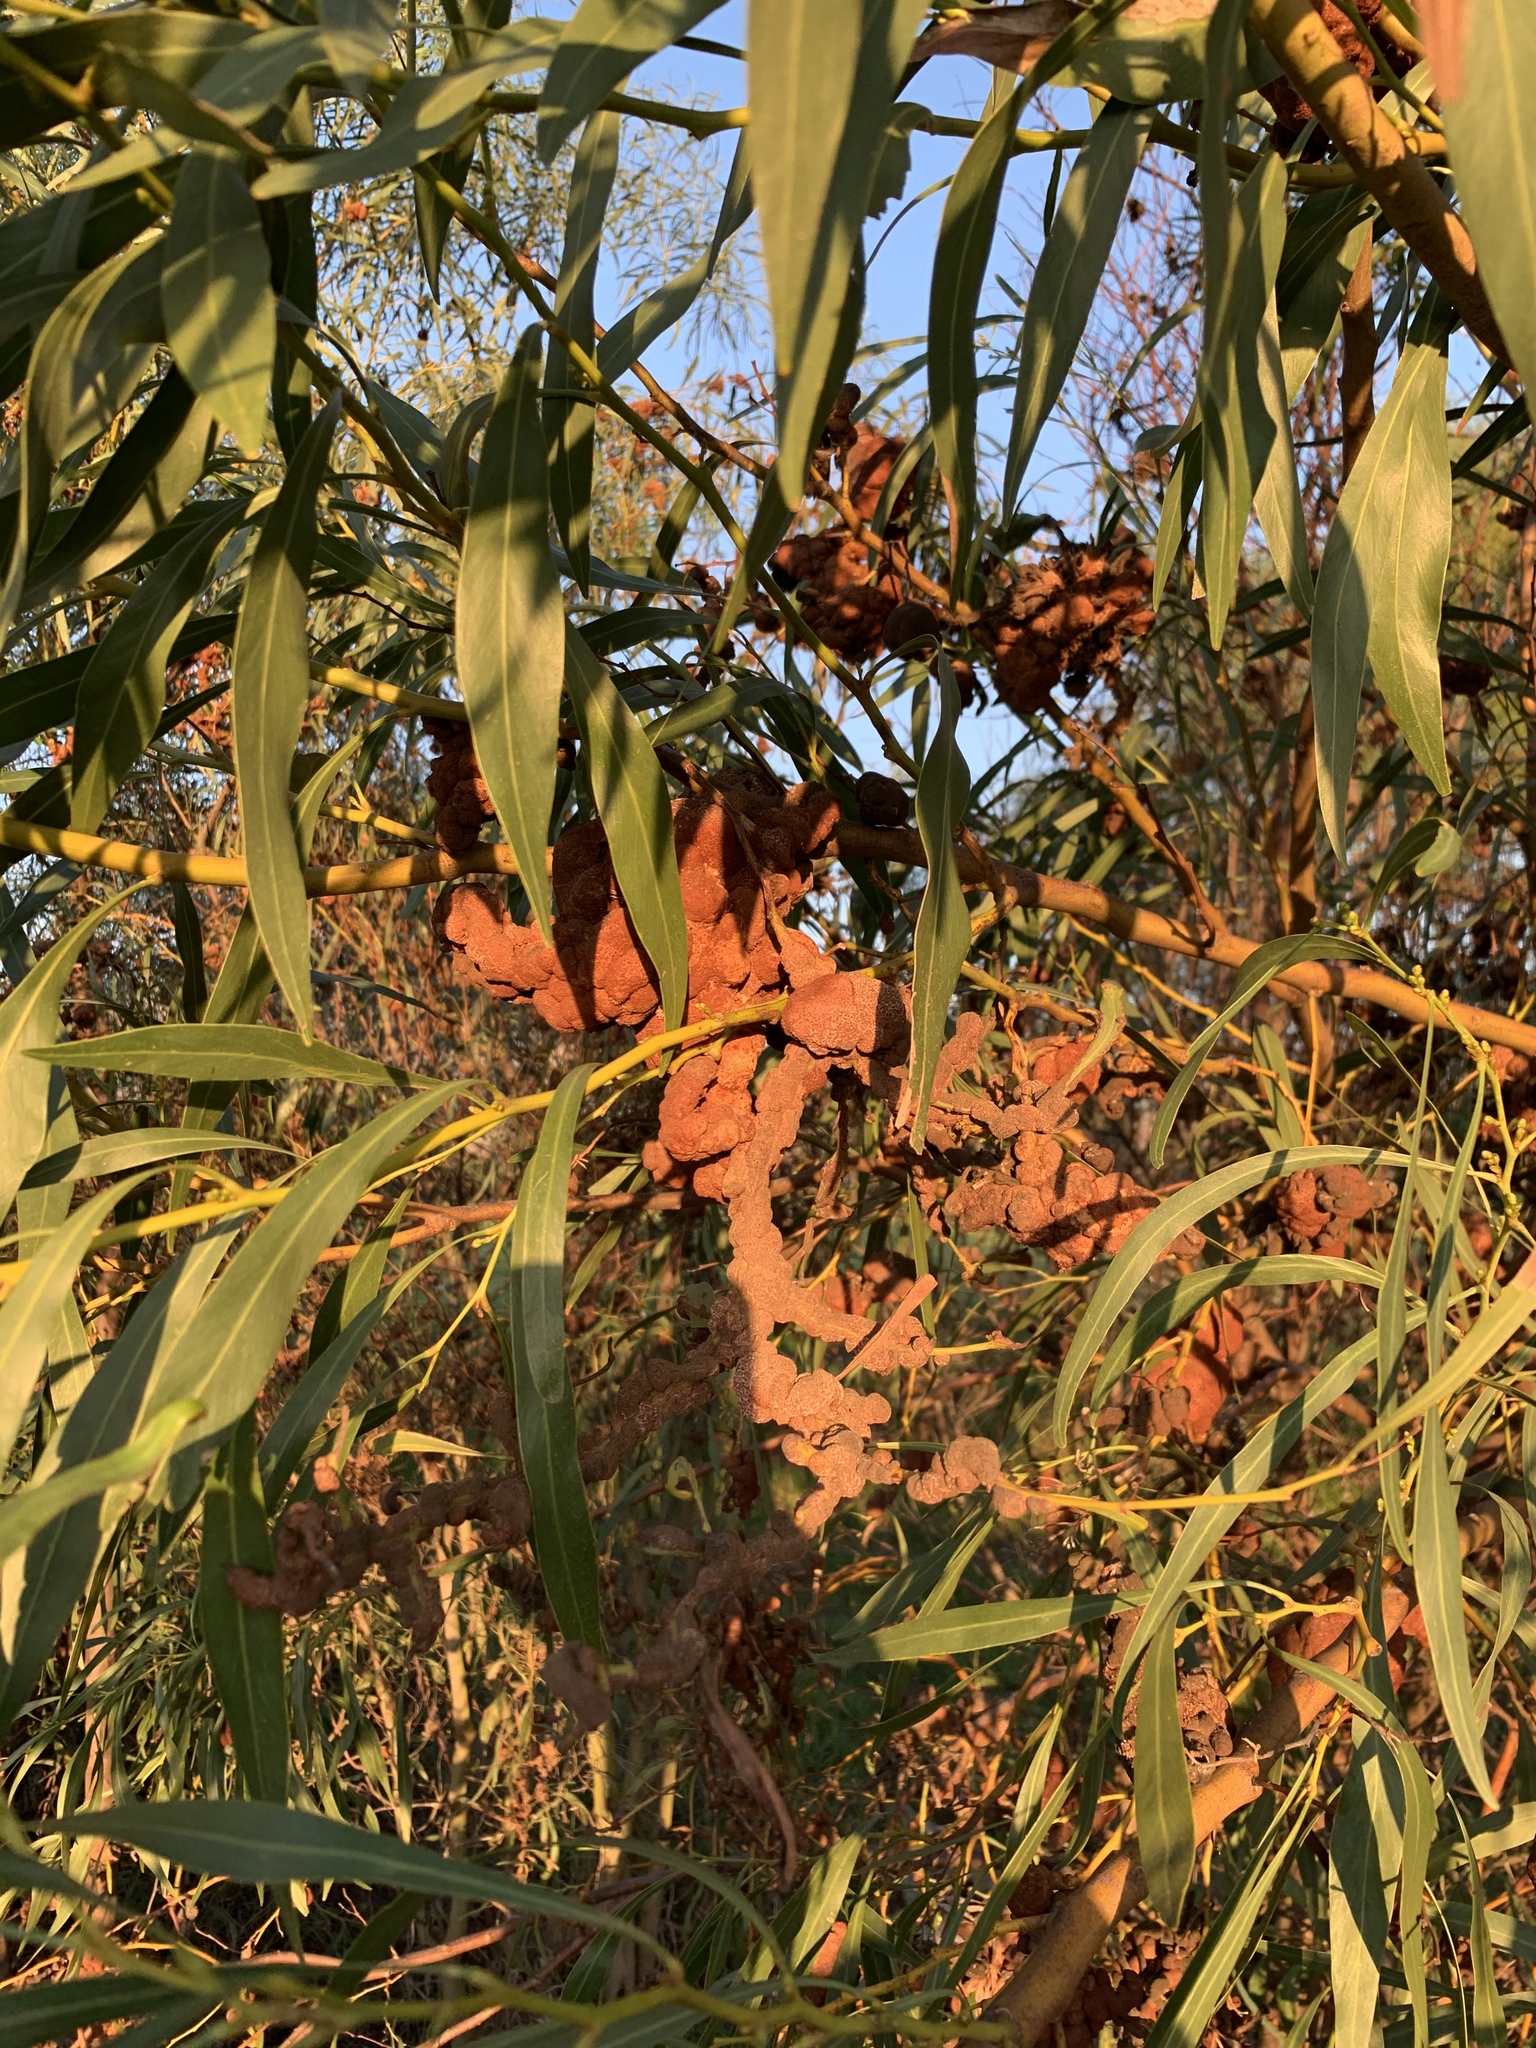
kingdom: Fungi
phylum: Basidiomycota
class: Pucciniomycetes
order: Pucciniales
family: Uromycladiaceae
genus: Uromycladium
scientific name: Uromycladium morrisii
